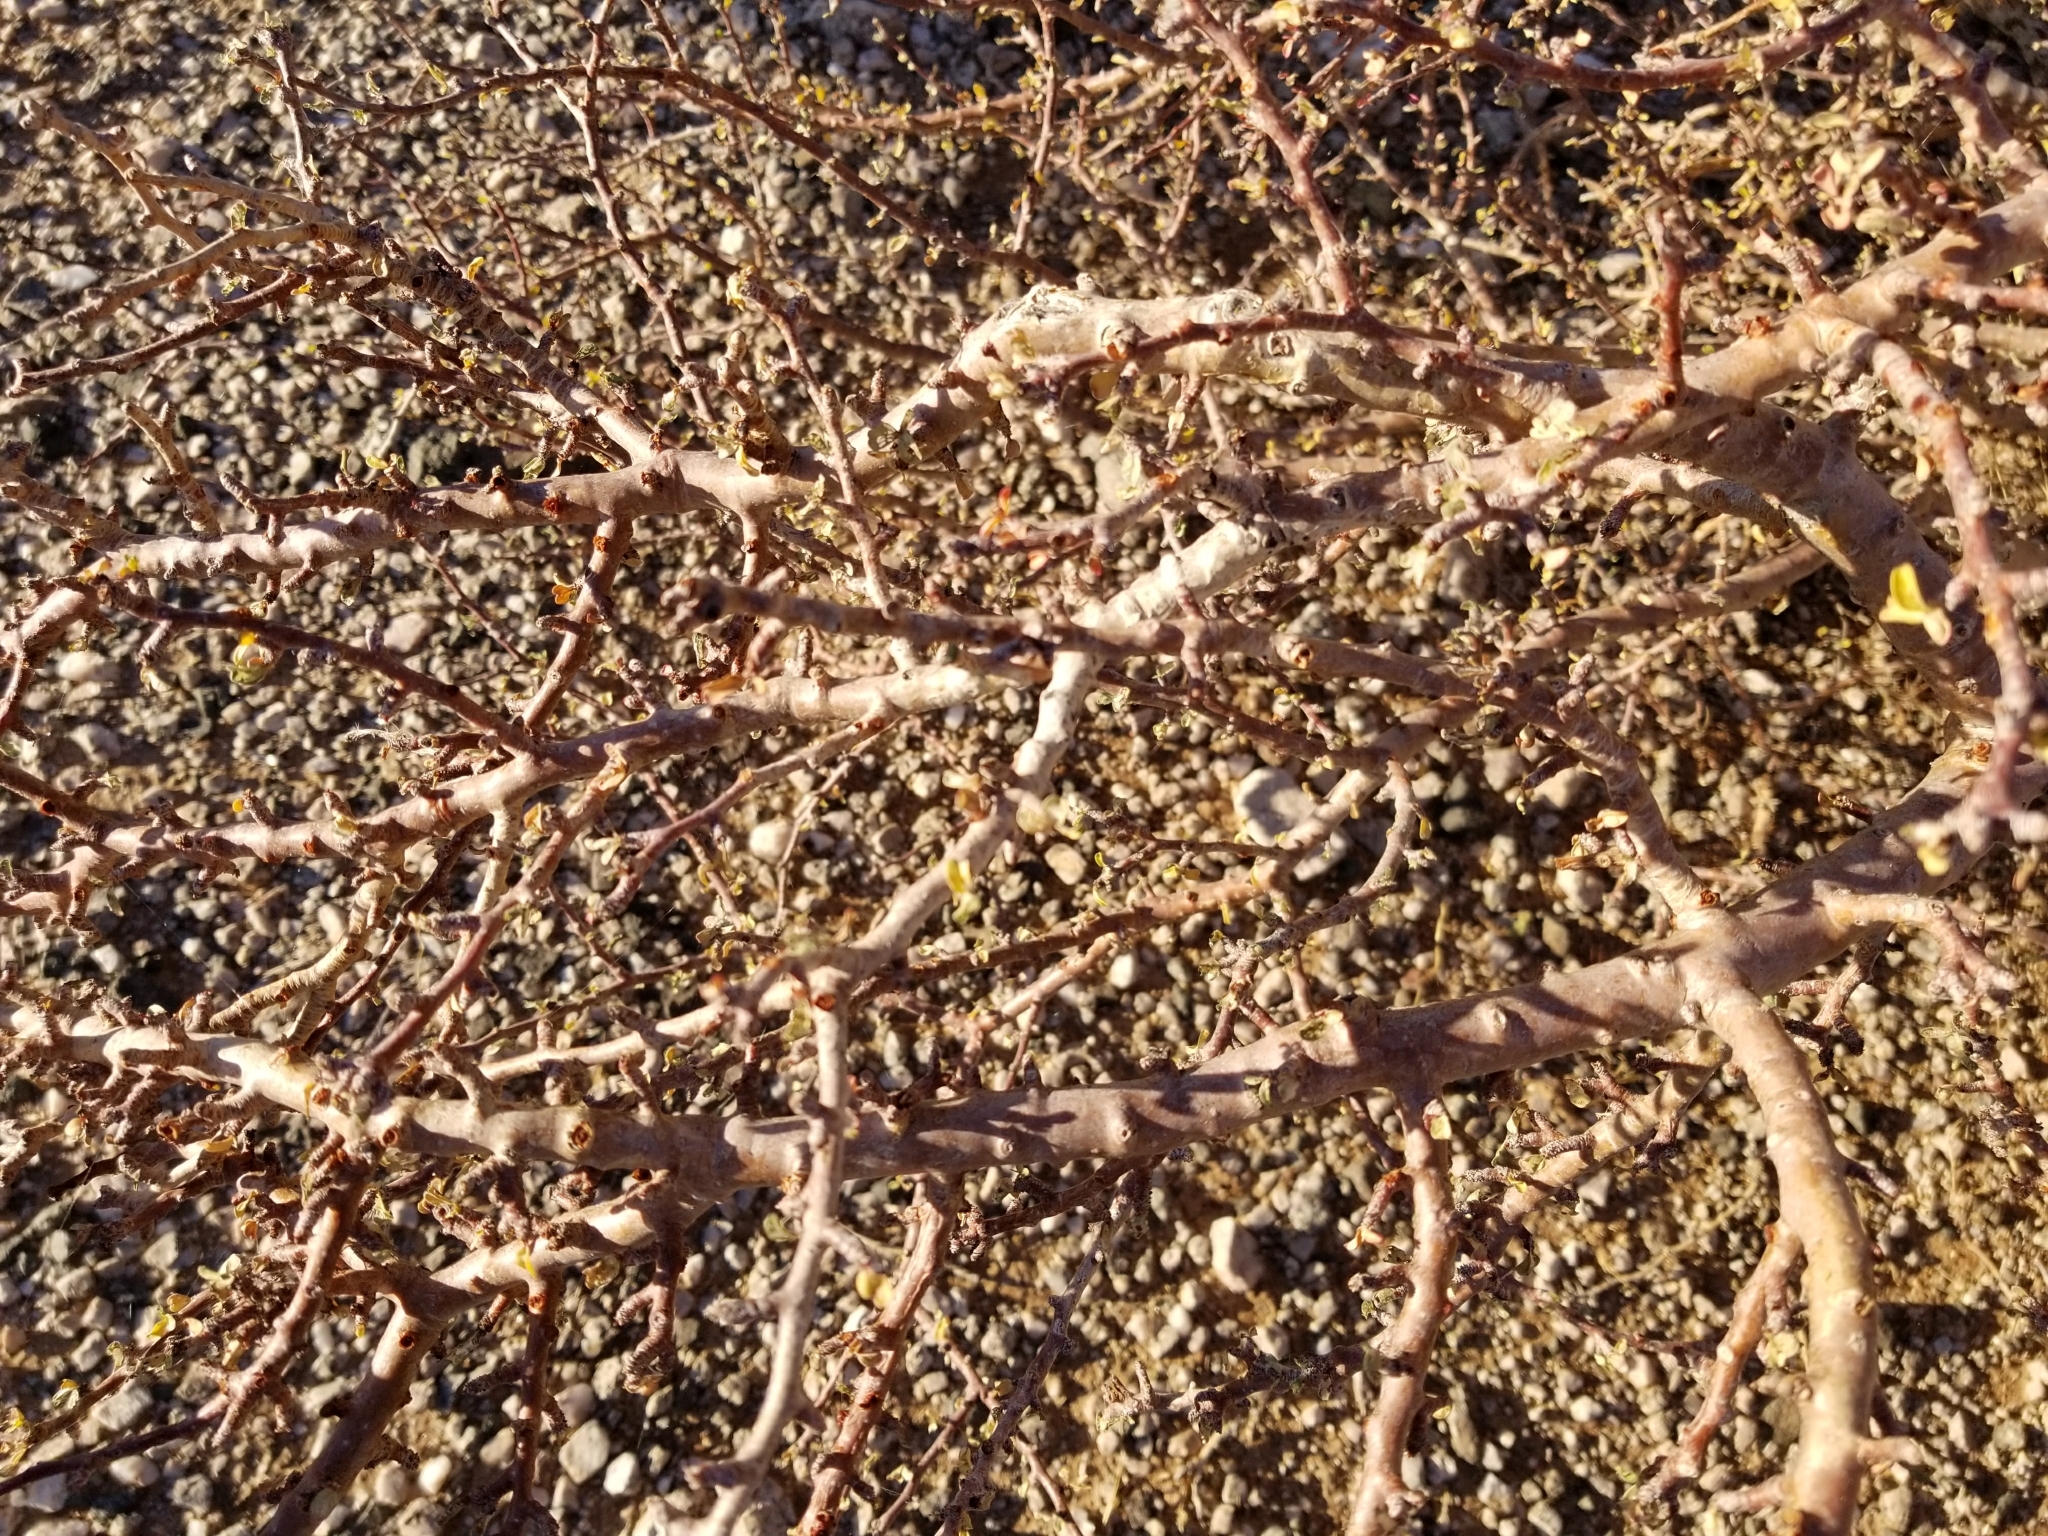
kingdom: Plantae
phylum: Tracheophyta
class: Magnoliopsida
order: Malpighiales
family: Euphorbiaceae
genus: Jatropha
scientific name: Jatropha cuneata
